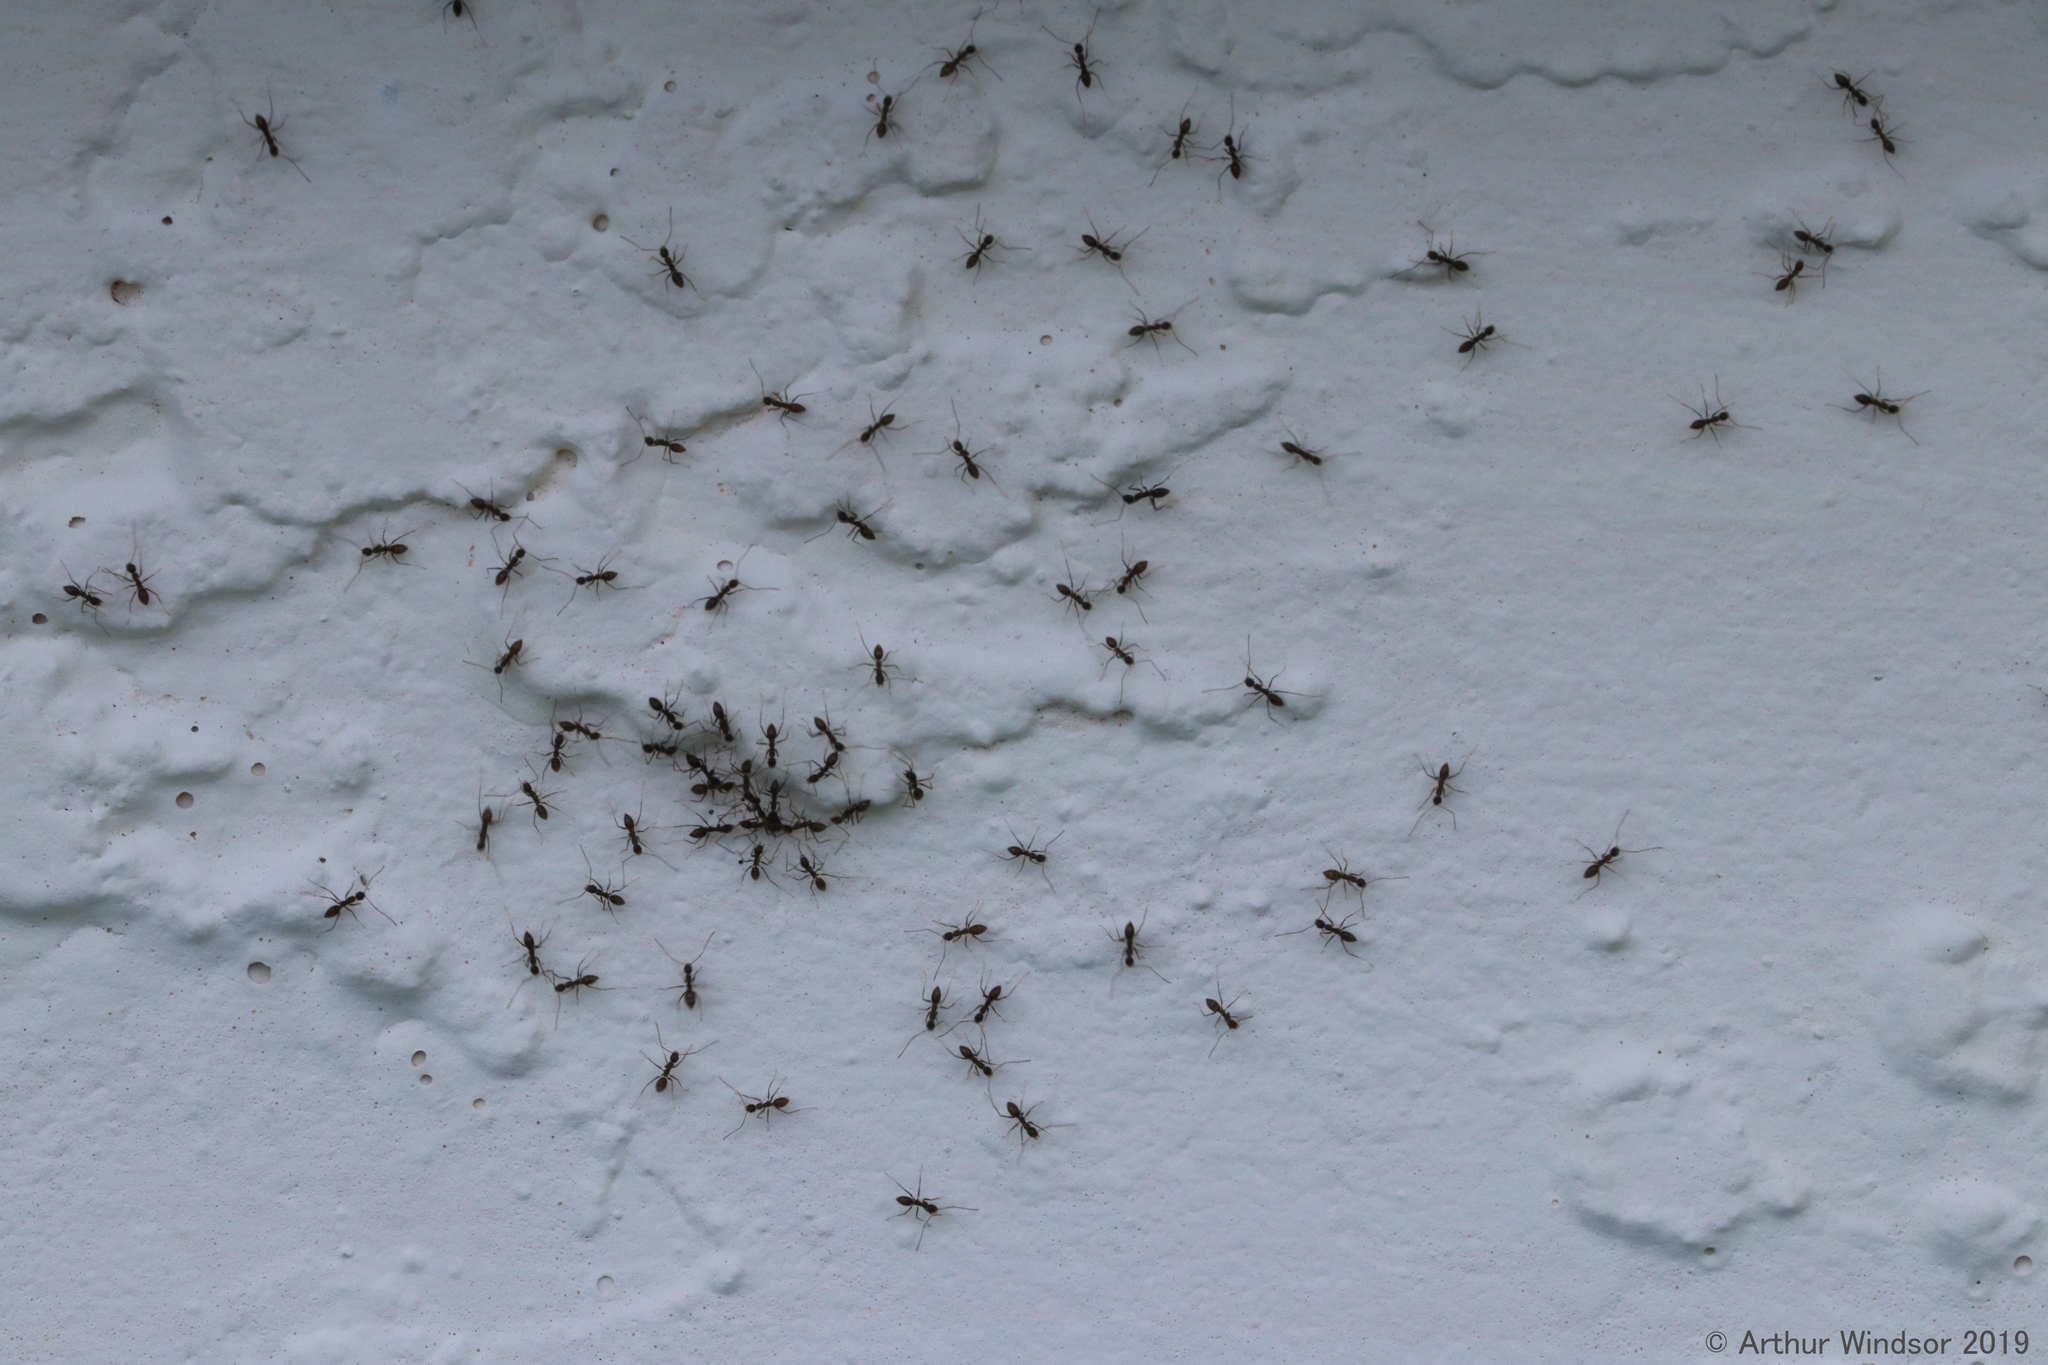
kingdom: Animalia
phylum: Arthropoda
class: Insecta
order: Hymenoptera
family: Formicidae
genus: Paratrechina
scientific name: Paratrechina longicornis
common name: Longhorned crazy ant
